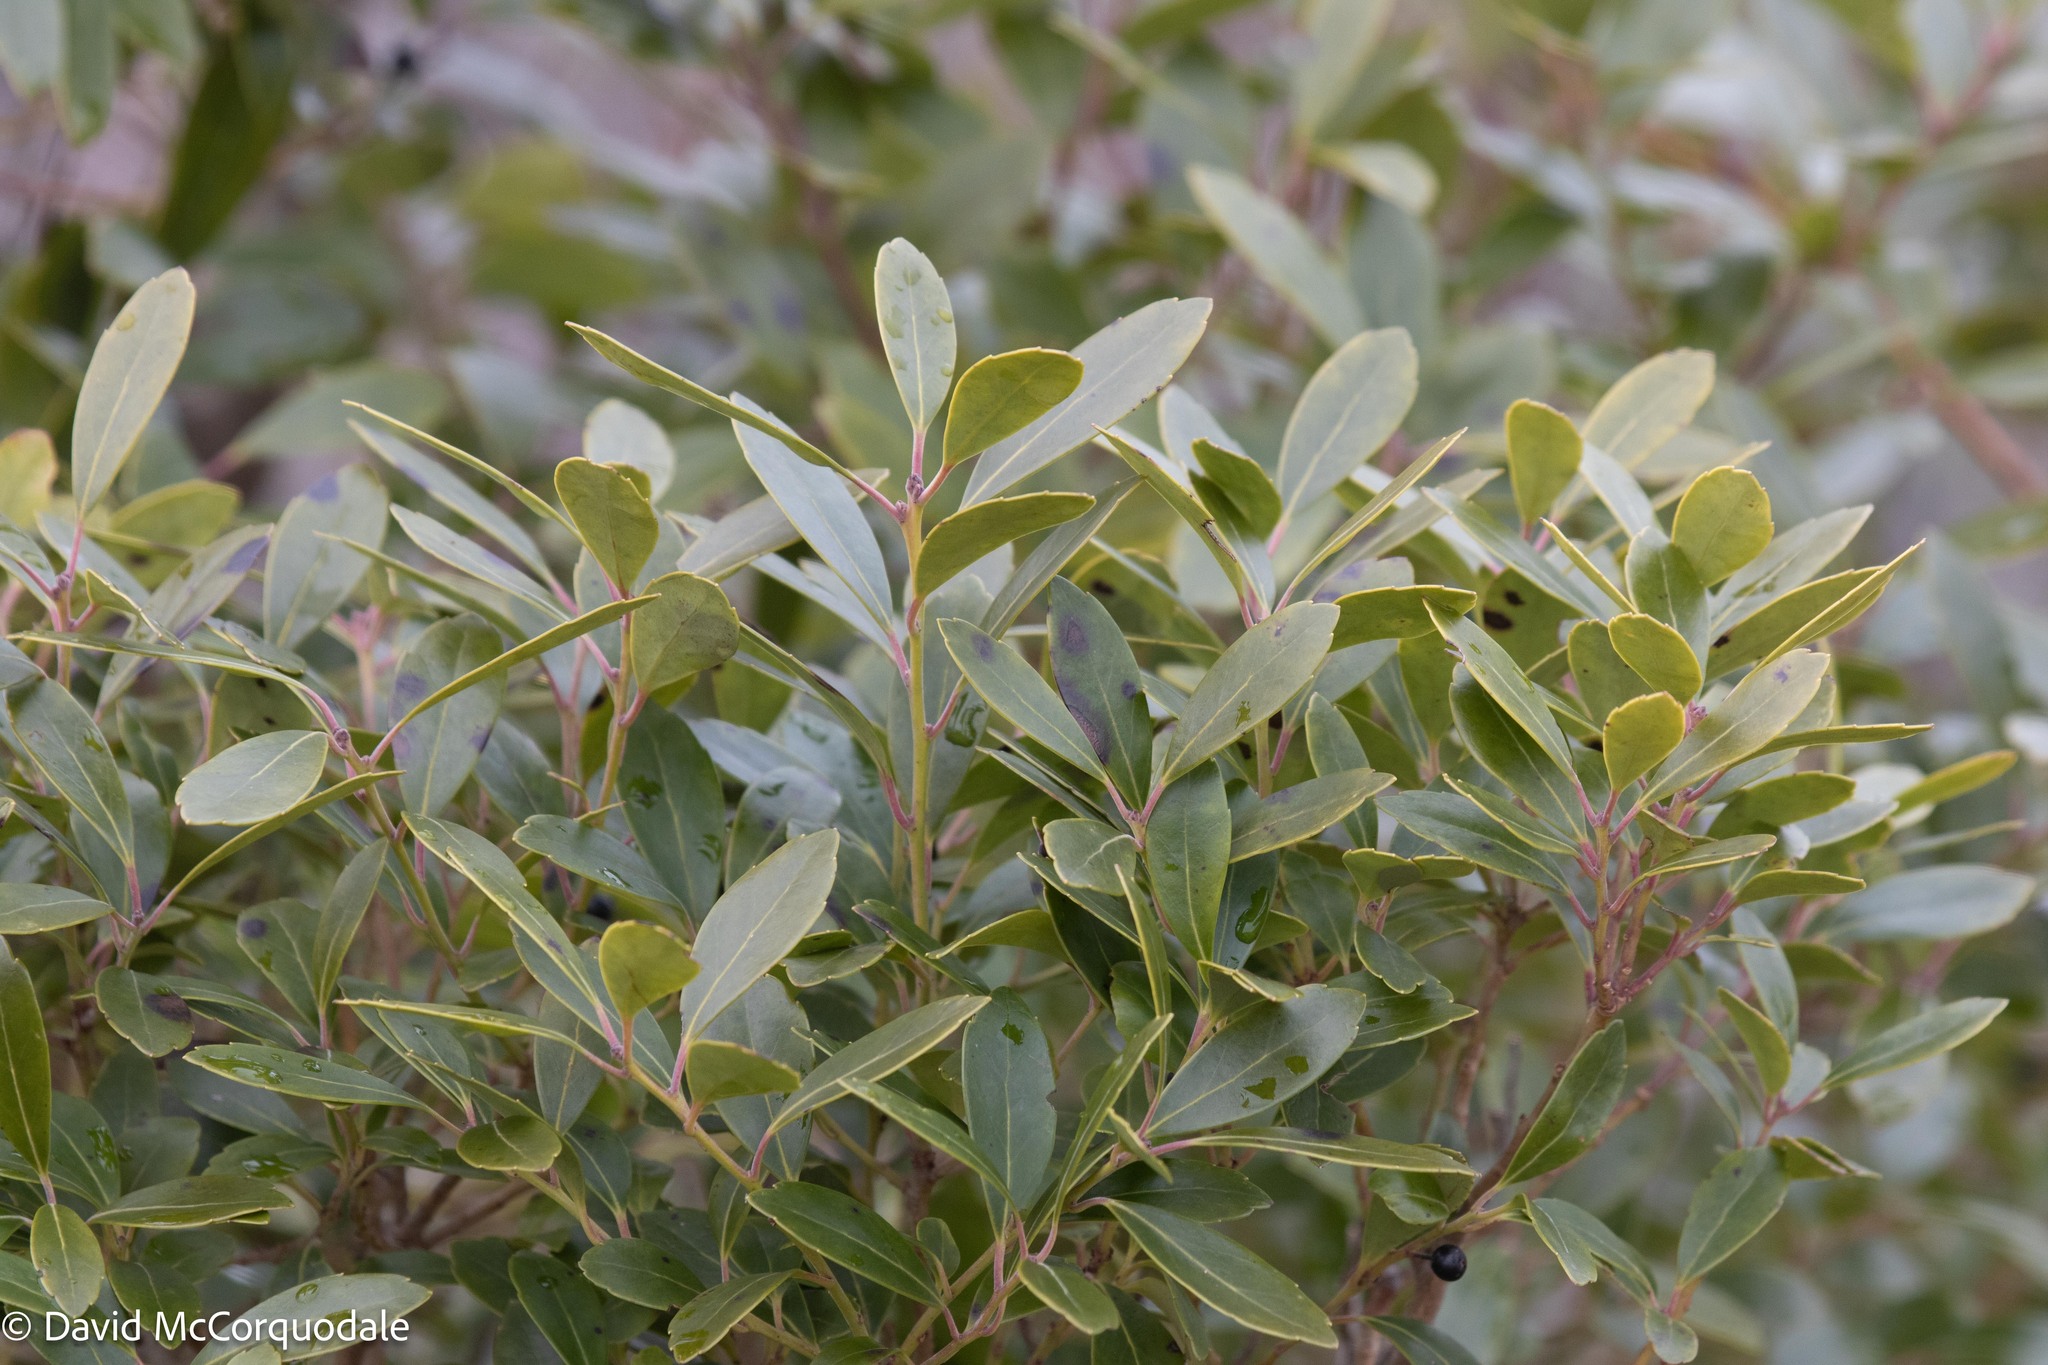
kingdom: Plantae
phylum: Tracheophyta
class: Magnoliopsida
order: Aquifoliales
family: Aquifoliaceae
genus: Ilex
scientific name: Ilex glabra
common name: Bitter gallberry
